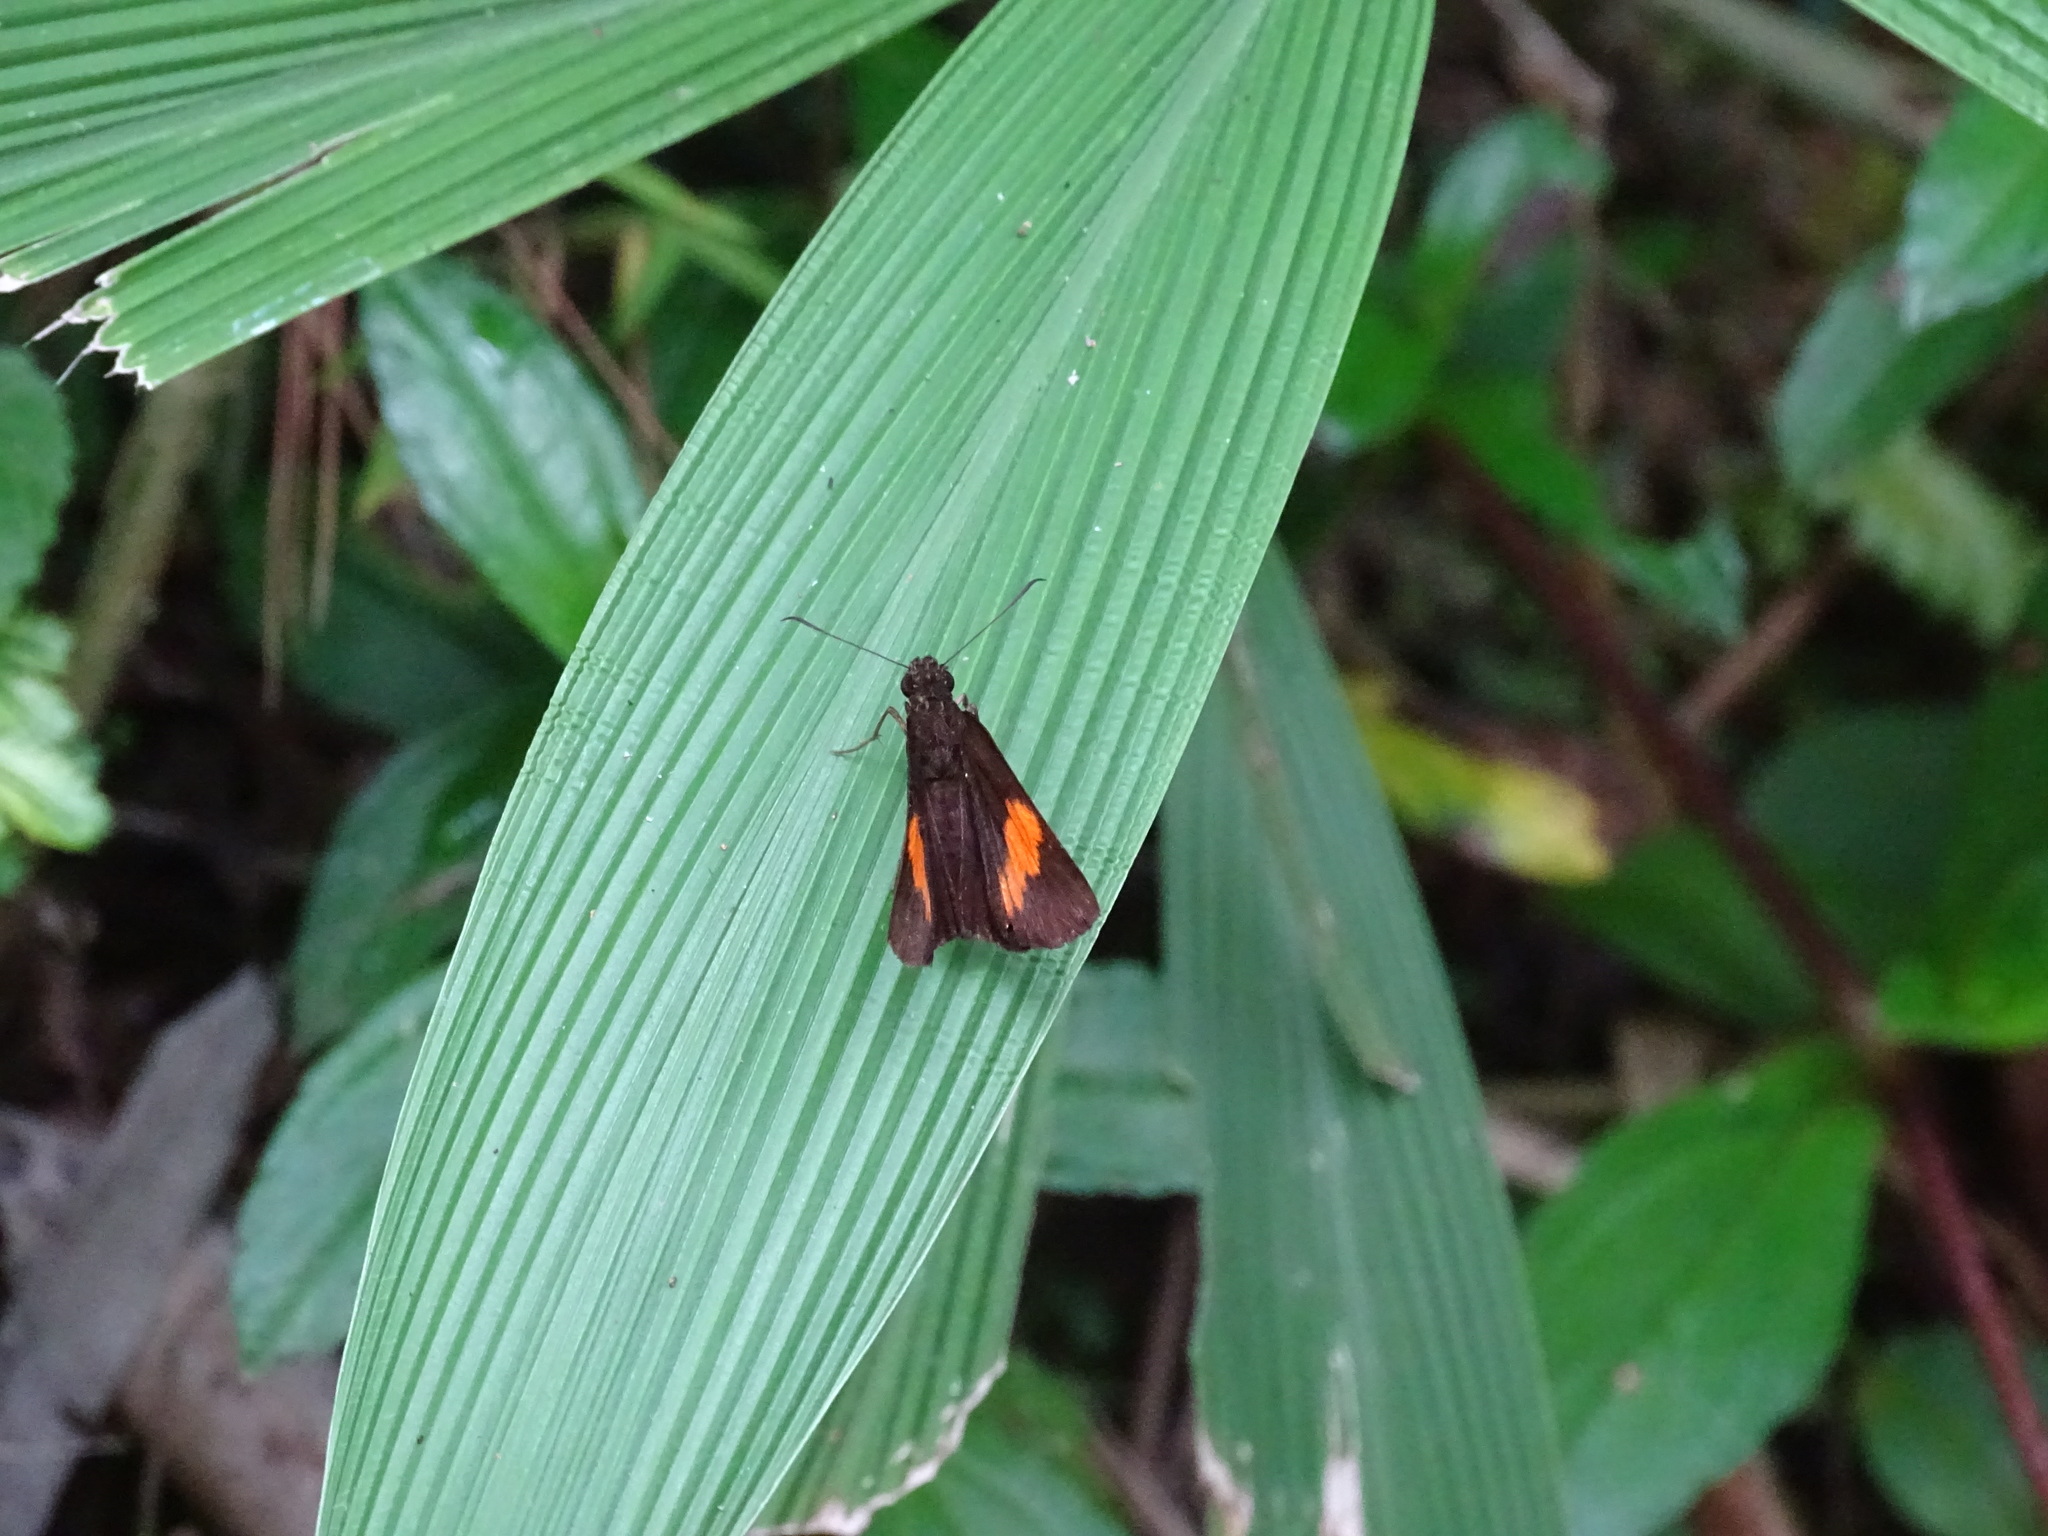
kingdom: Animalia
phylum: Arthropoda
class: Insecta
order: Lepidoptera
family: Hesperiidae
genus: Koruthaialos
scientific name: Koruthaialos sindu
